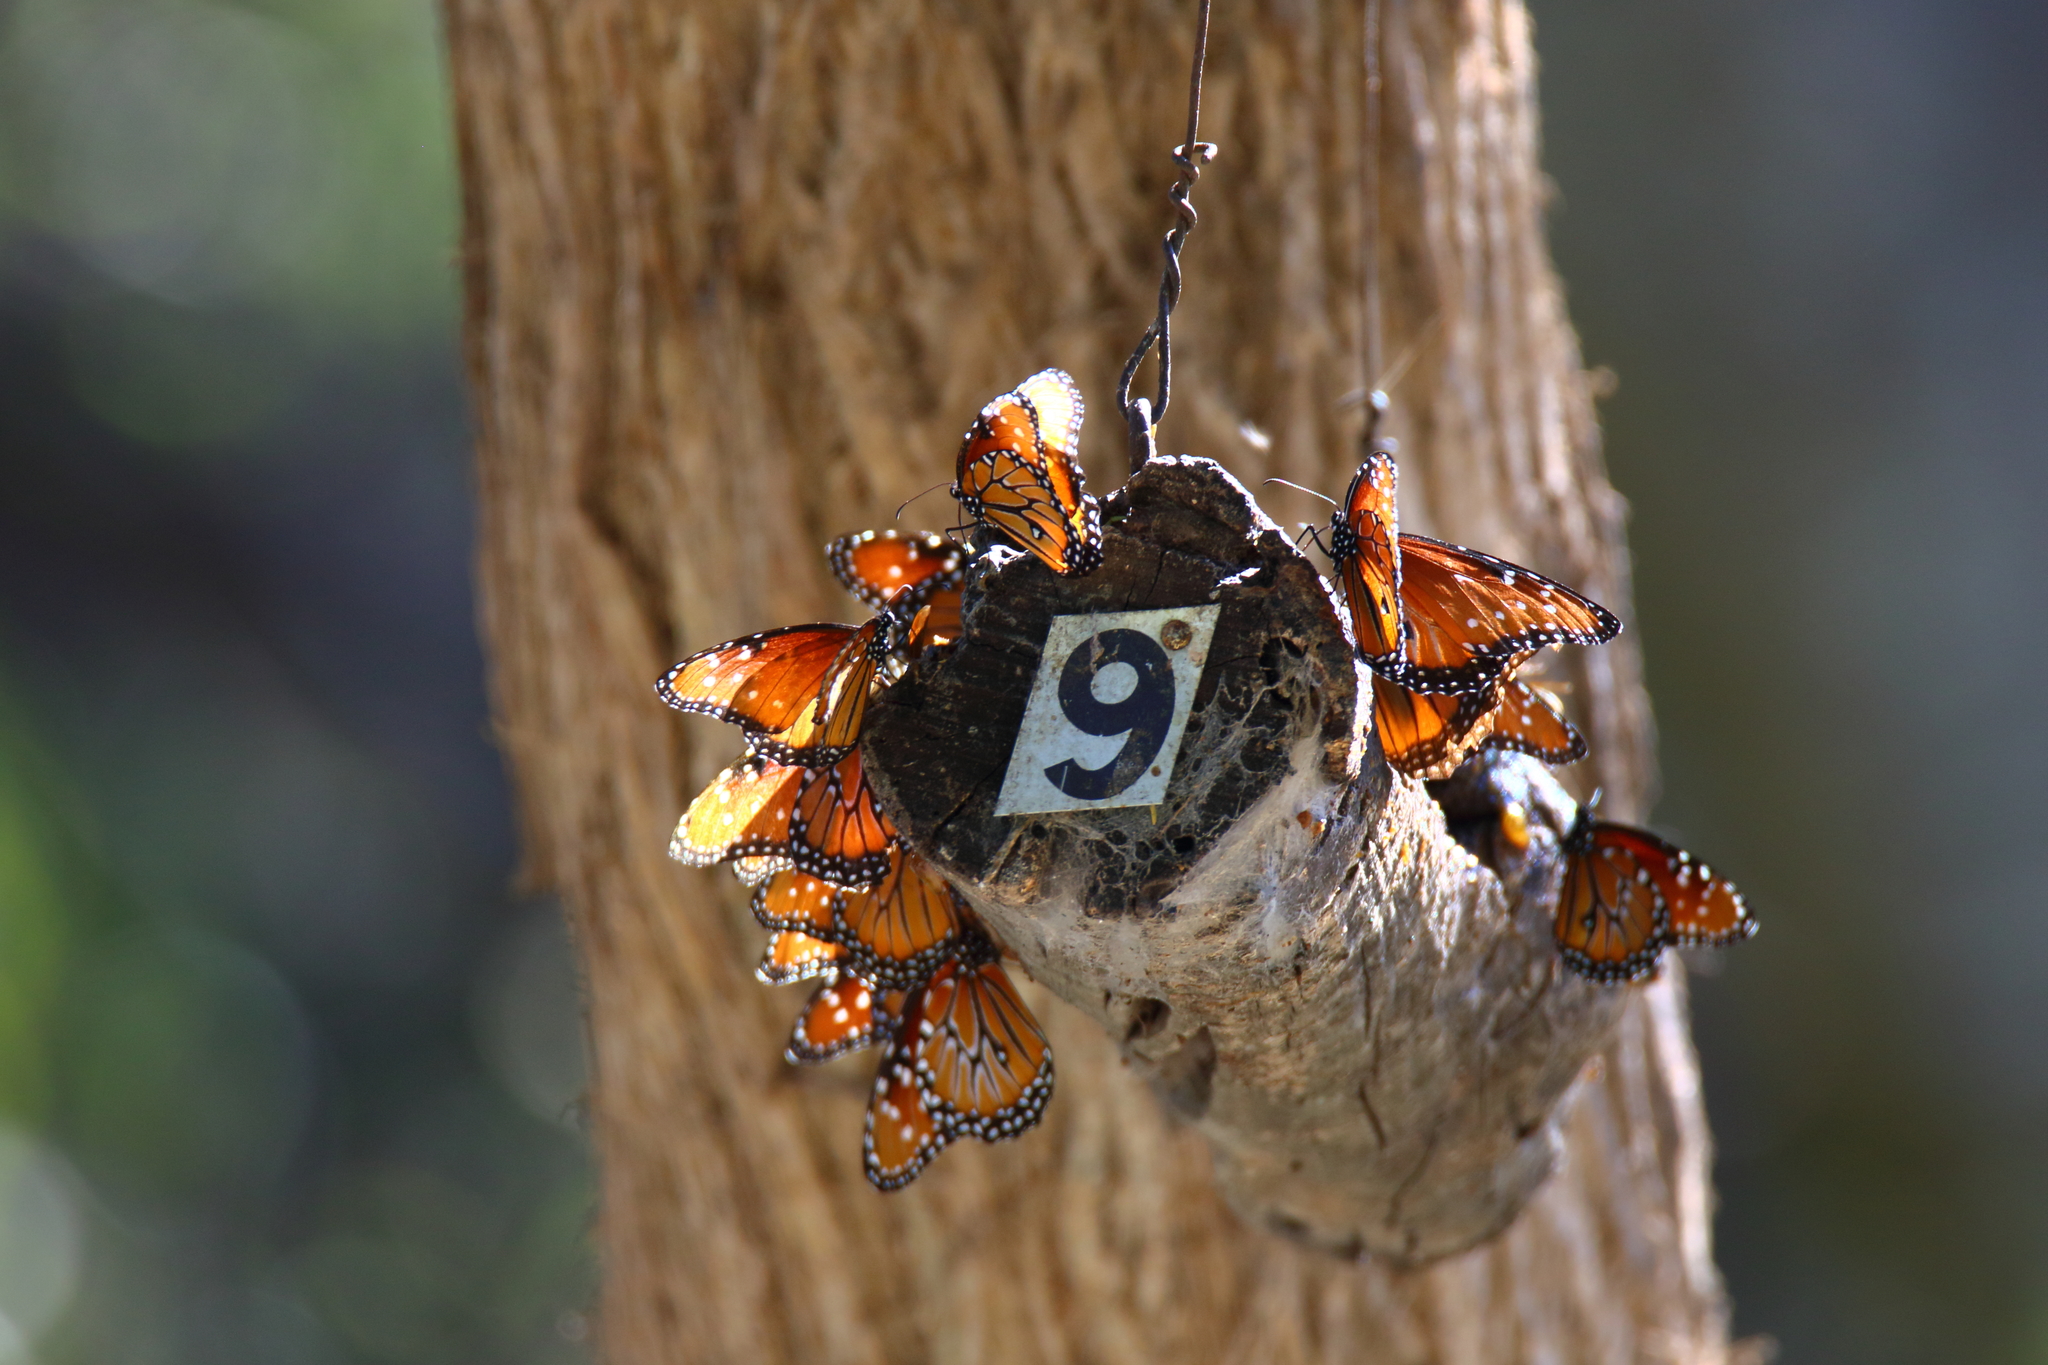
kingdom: Animalia
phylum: Arthropoda
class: Insecta
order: Lepidoptera
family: Nymphalidae
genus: Danaus
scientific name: Danaus gilippus
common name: Queen
